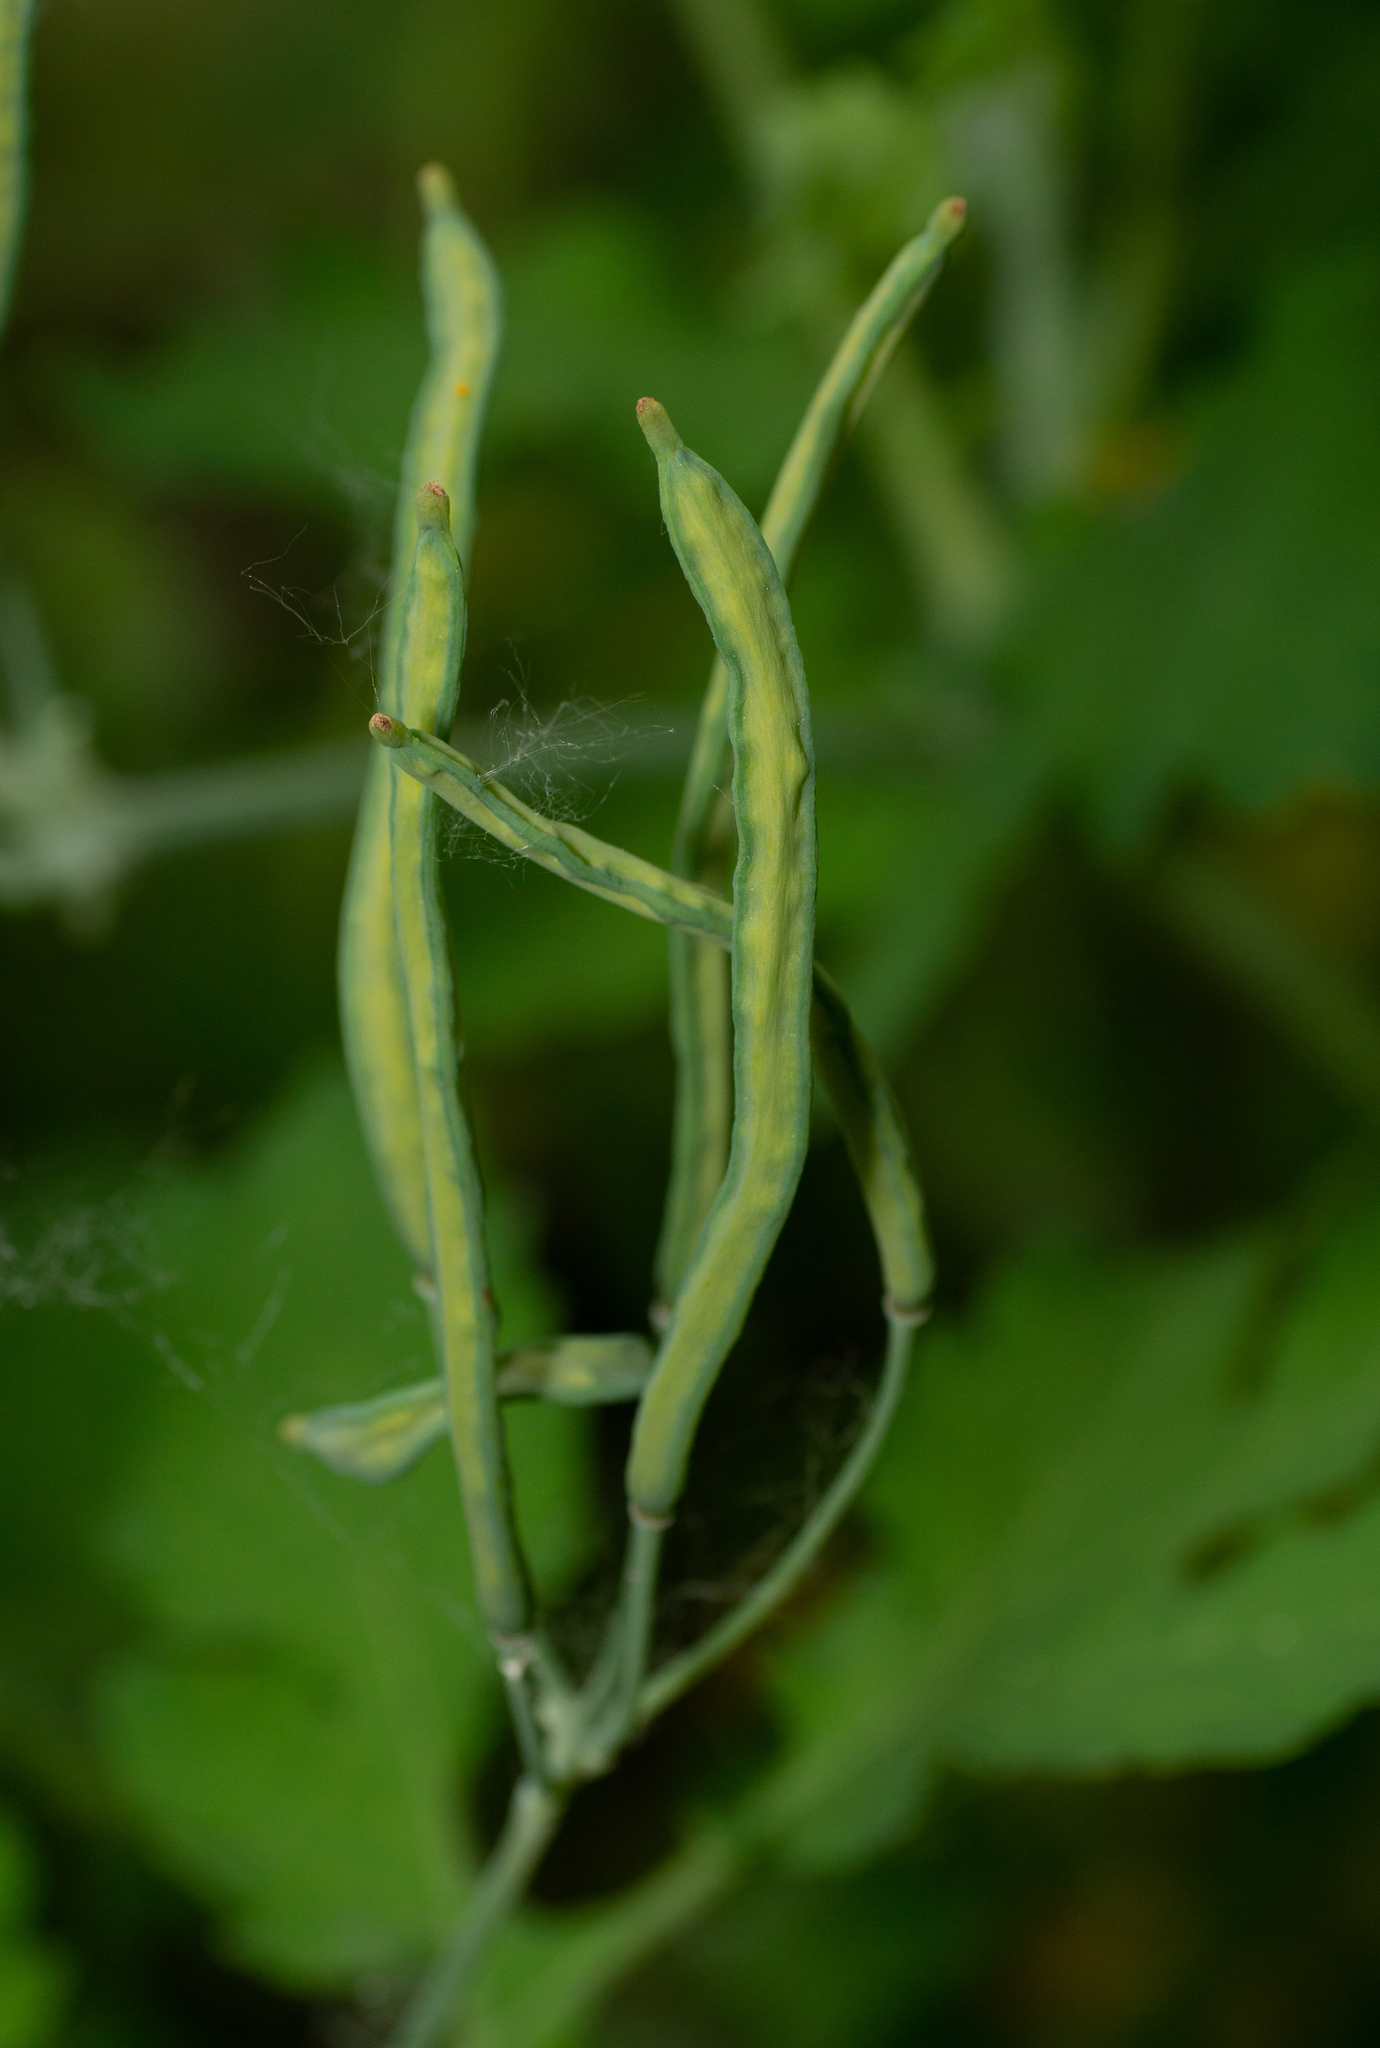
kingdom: Plantae
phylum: Tracheophyta
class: Magnoliopsida
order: Ranunculales
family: Papaveraceae
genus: Chelidonium
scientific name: Chelidonium majus
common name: Greater celandine
